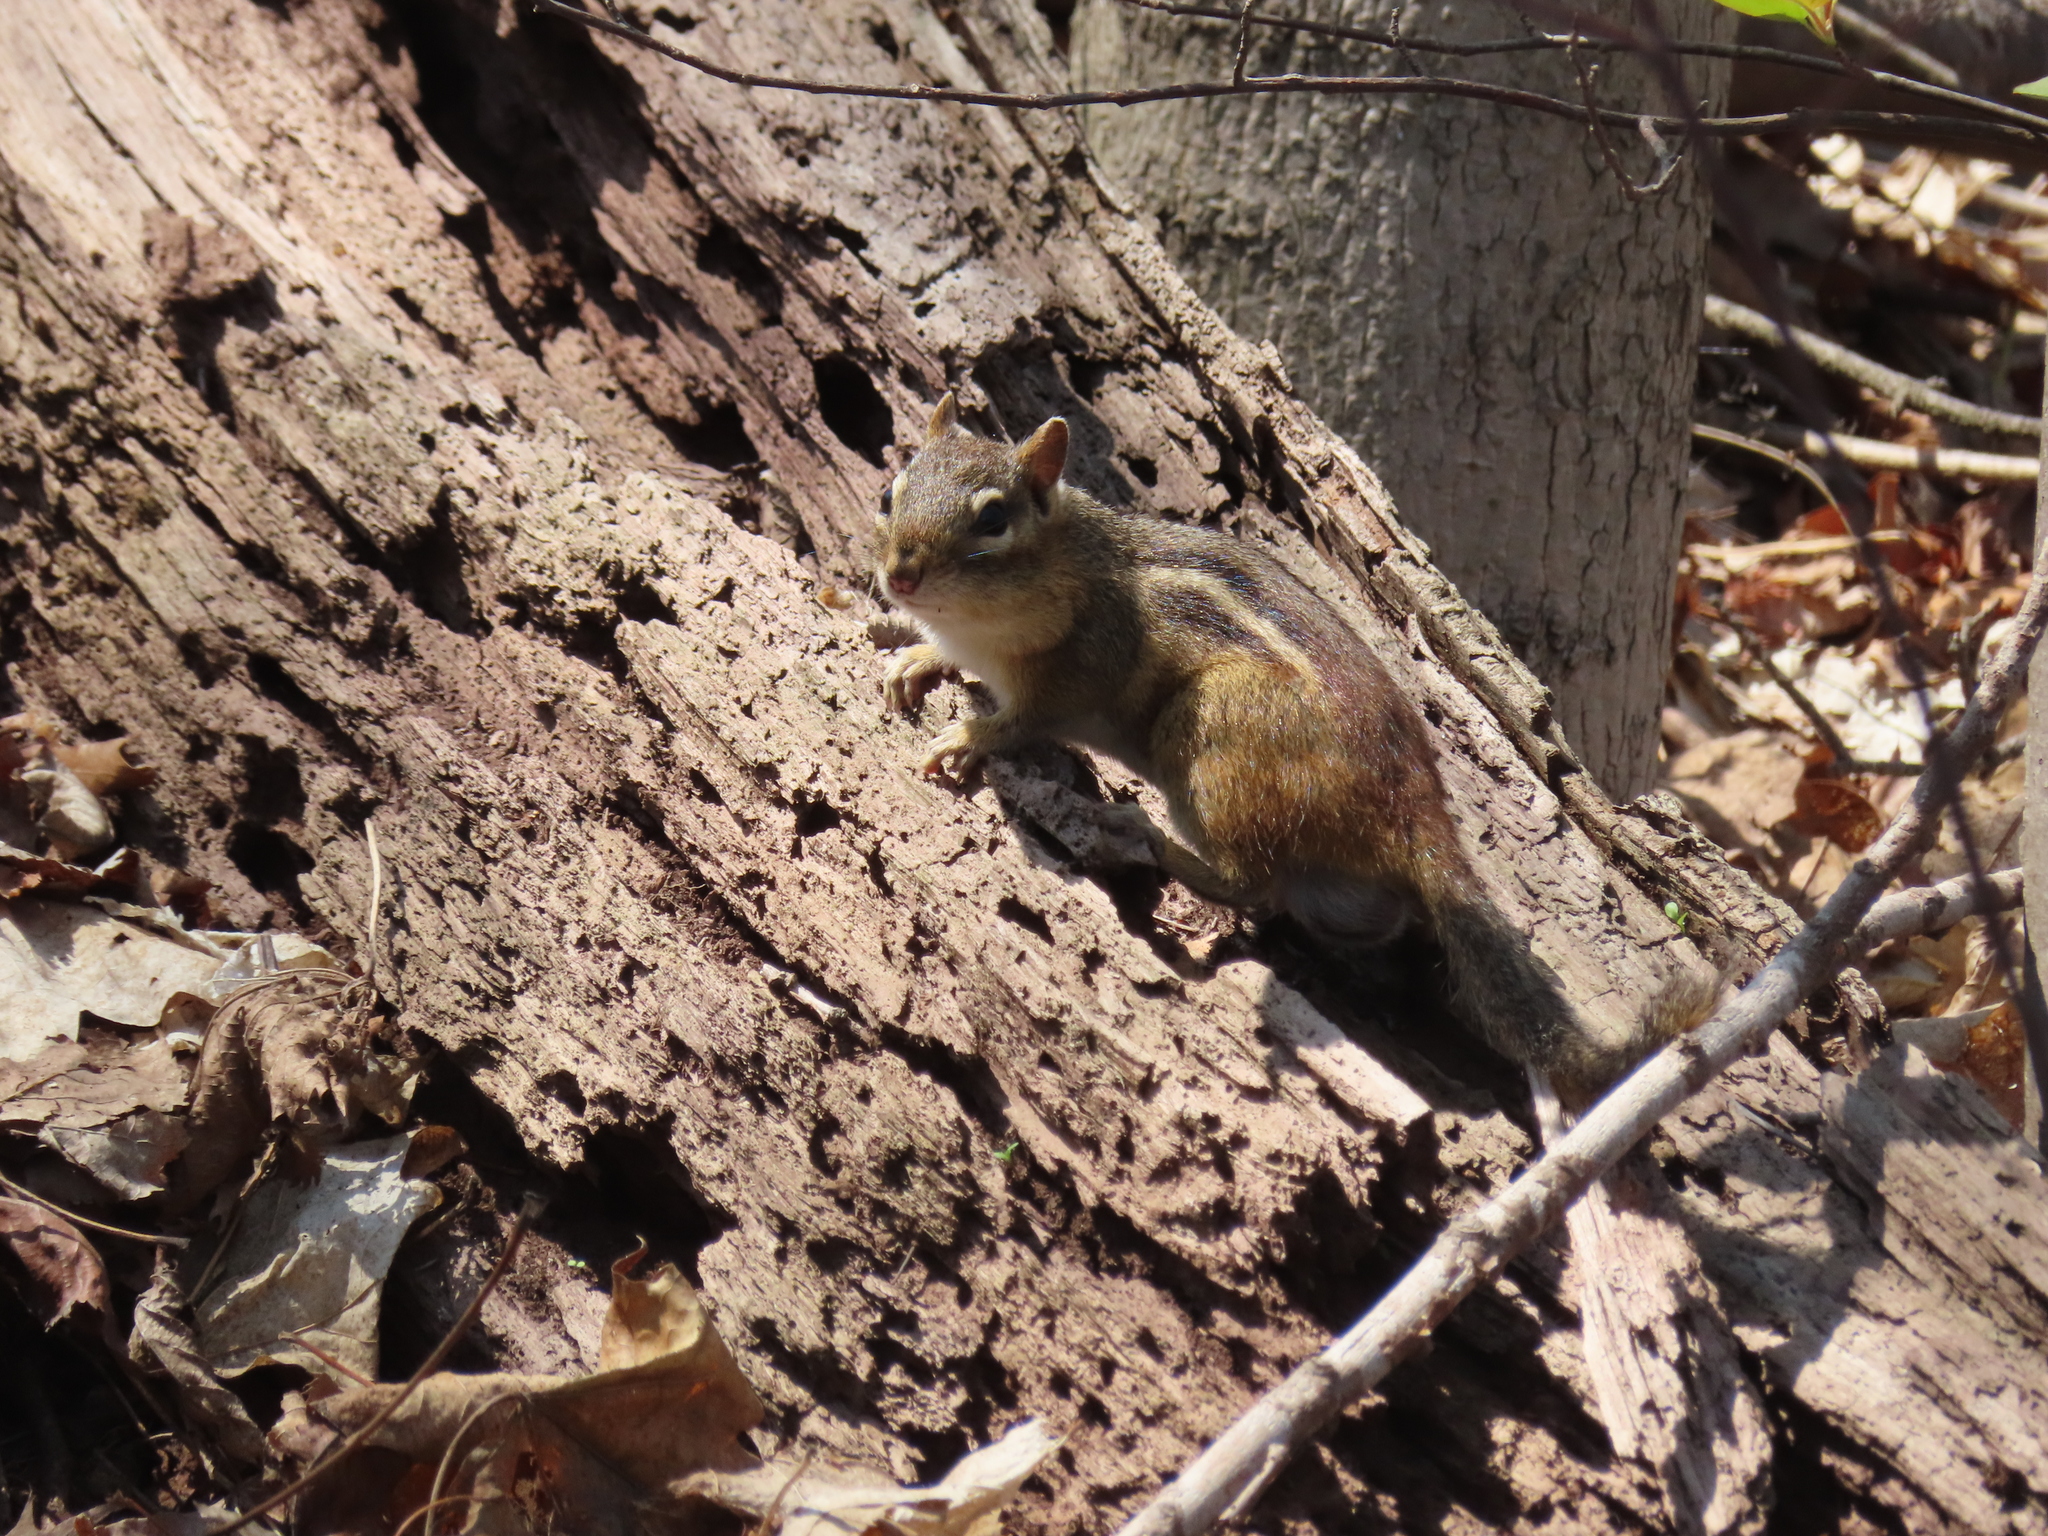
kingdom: Animalia
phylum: Chordata
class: Mammalia
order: Rodentia
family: Sciuridae
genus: Tamias
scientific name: Tamias striatus
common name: Eastern chipmunk
